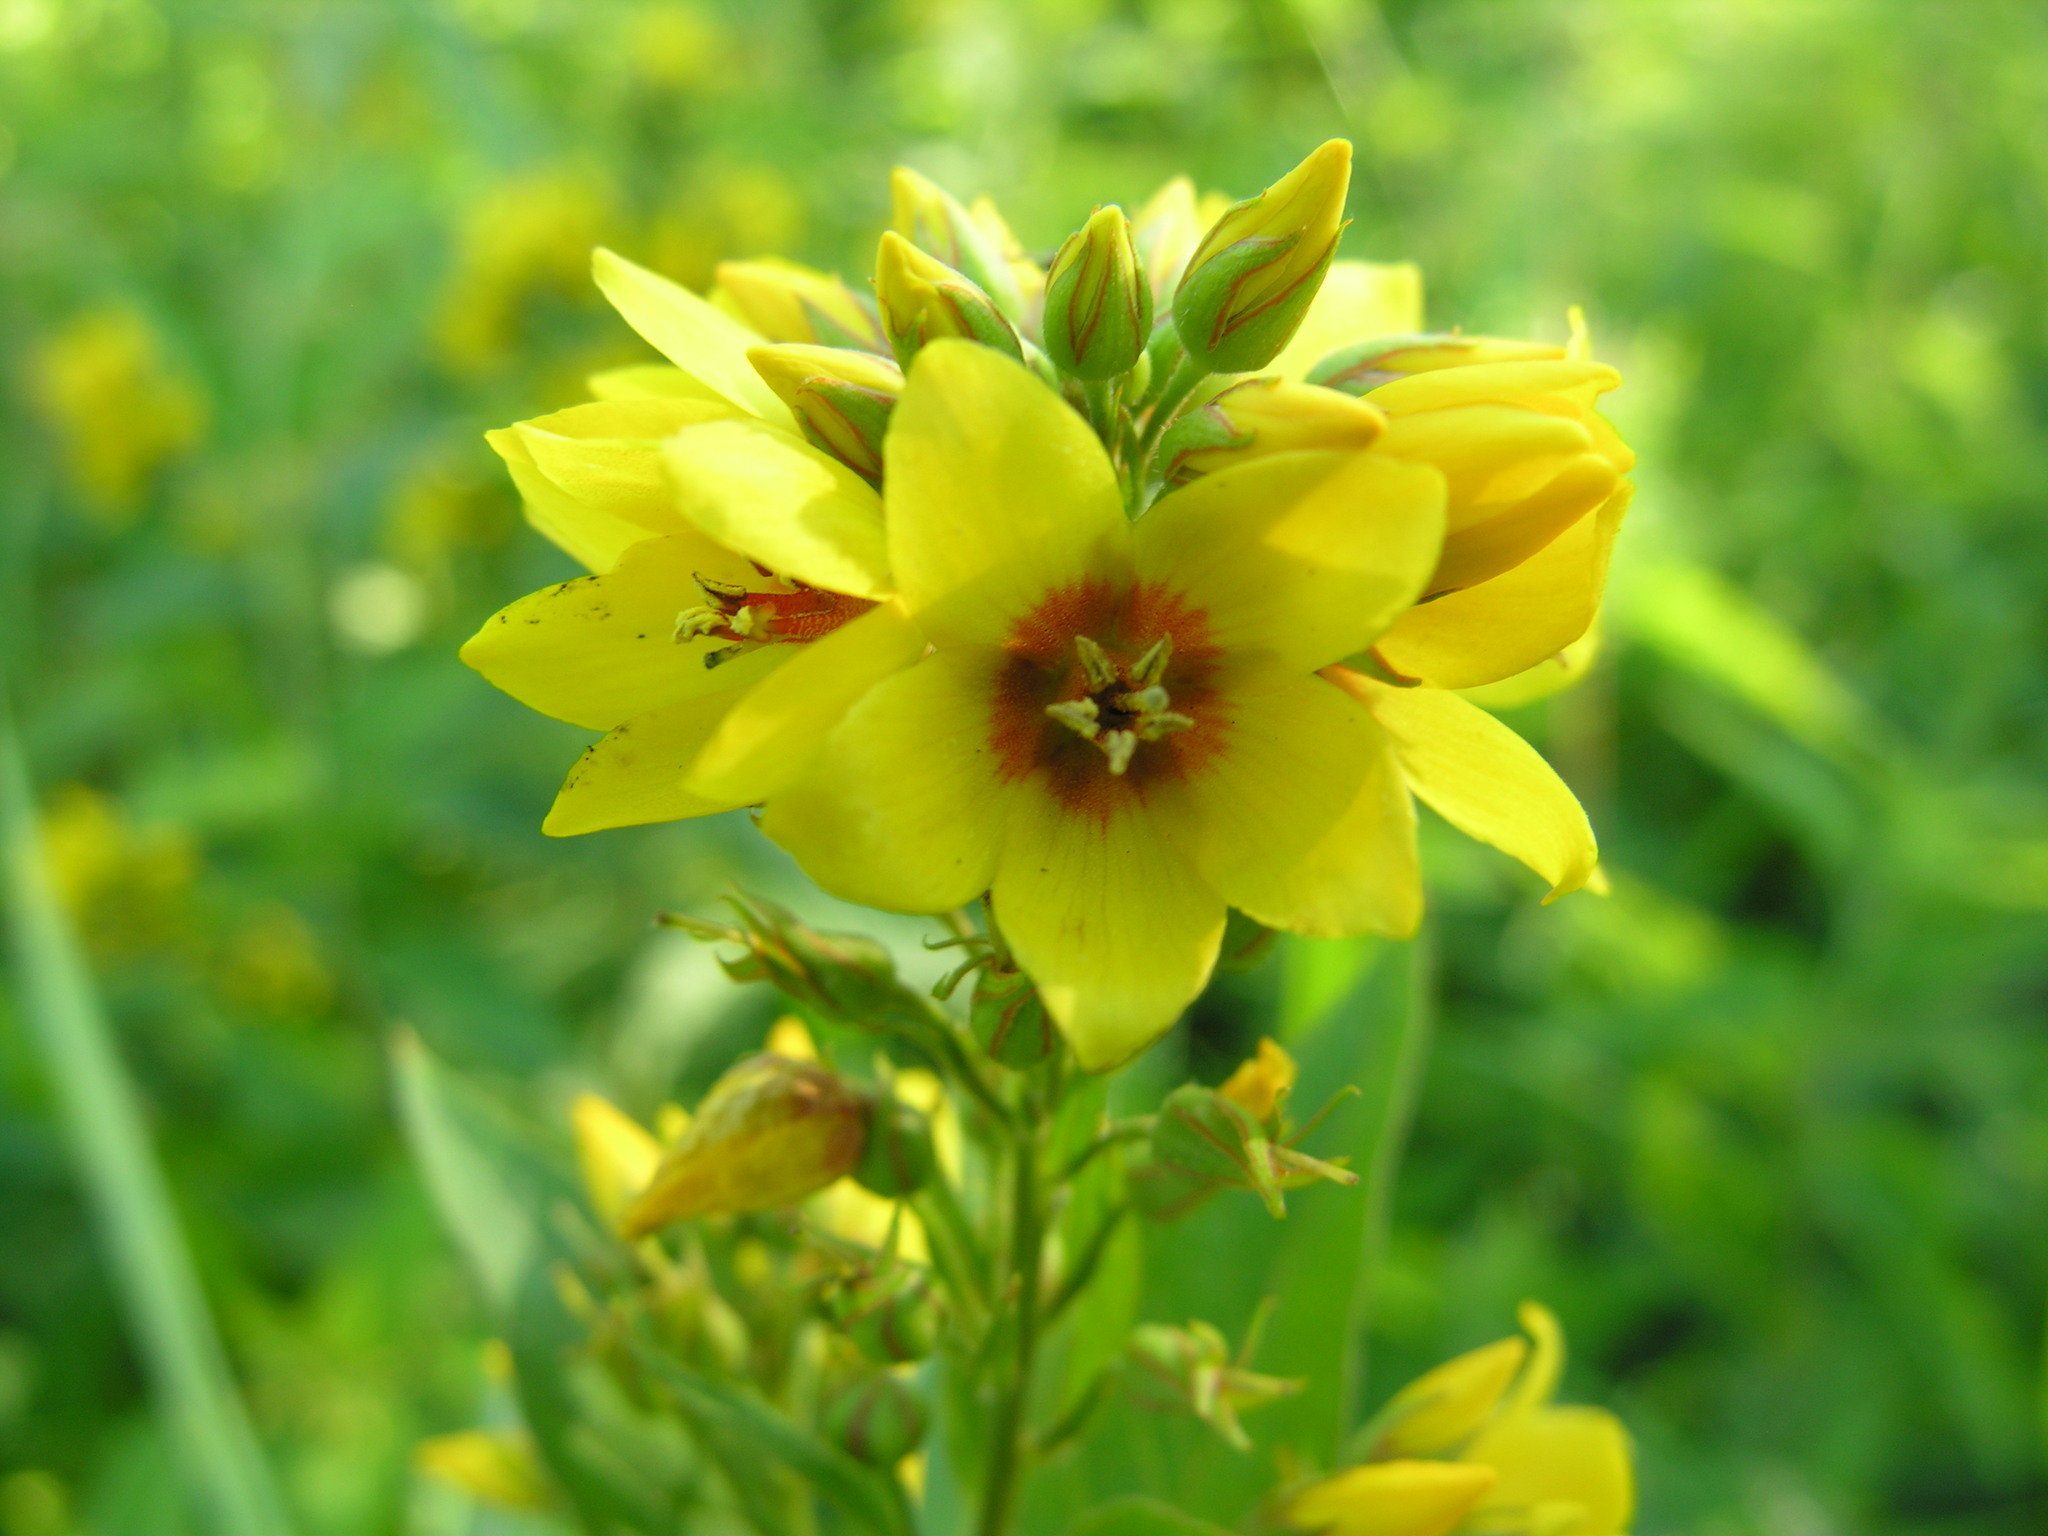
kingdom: Plantae
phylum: Tracheophyta
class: Magnoliopsida
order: Ericales
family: Primulaceae
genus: Lysimachia
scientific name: Lysimachia vulgaris
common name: Yellow loosestrife
